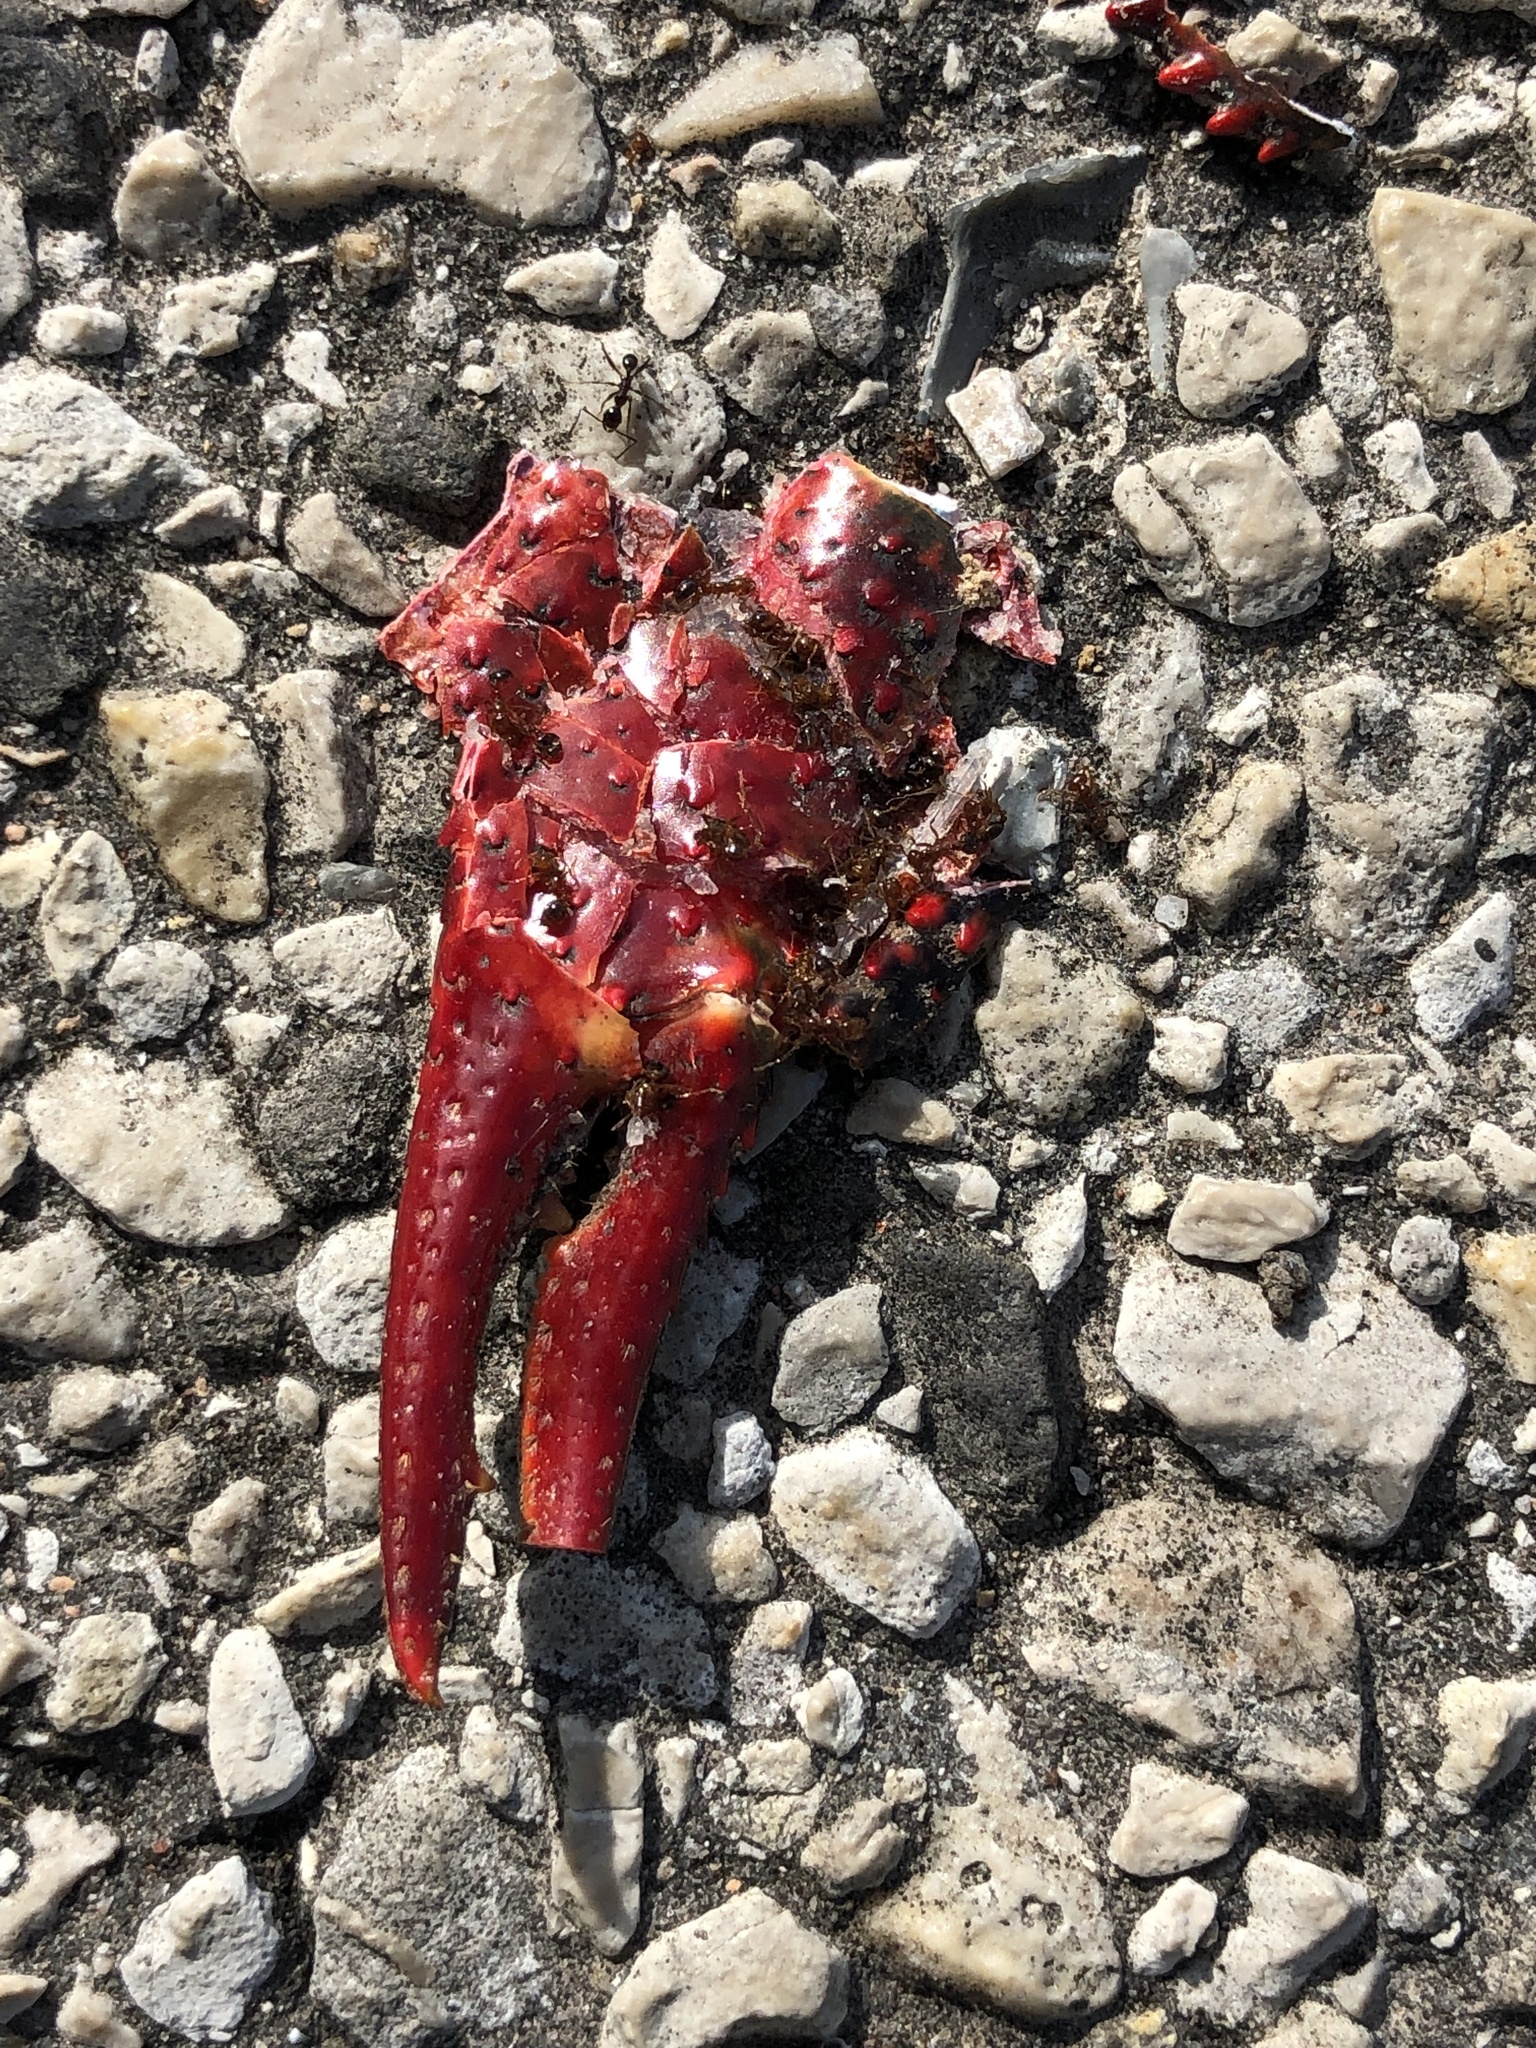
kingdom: Animalia
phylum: Arthropoda
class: Malacostraca
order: Decapoda
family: Cambaridae
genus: Procambarus
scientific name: Procambarus clarkii
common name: Red swamp crayfish
